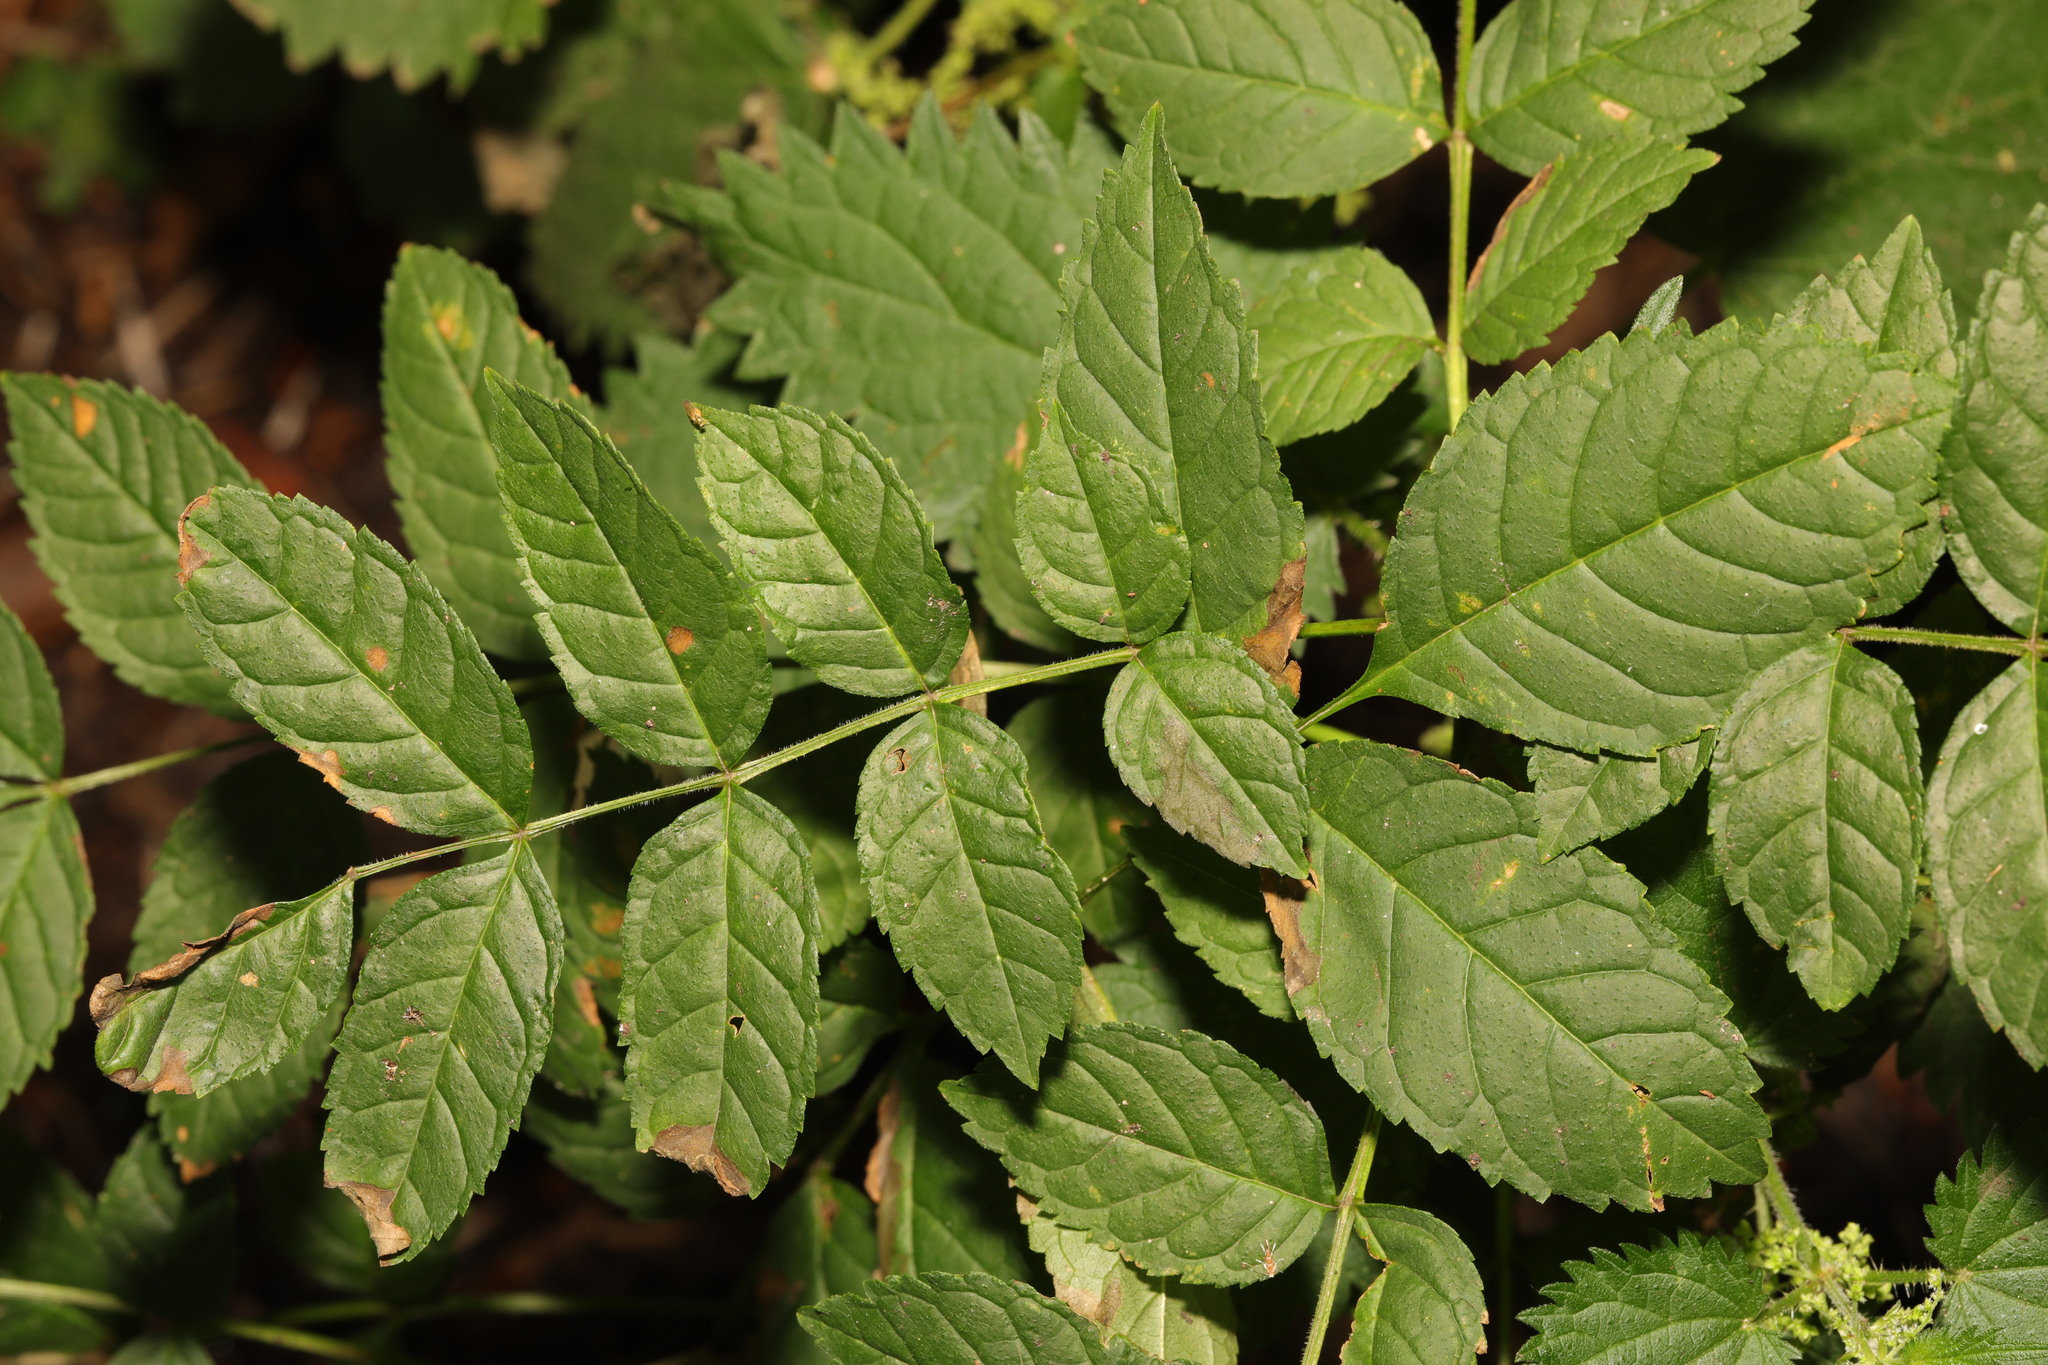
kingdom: Plantae
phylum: Tracheophyta
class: Magnoliopsida
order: Lamiales
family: Oleaceae
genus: Fraxinus
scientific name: Fraxinus excelsior
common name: European ash
